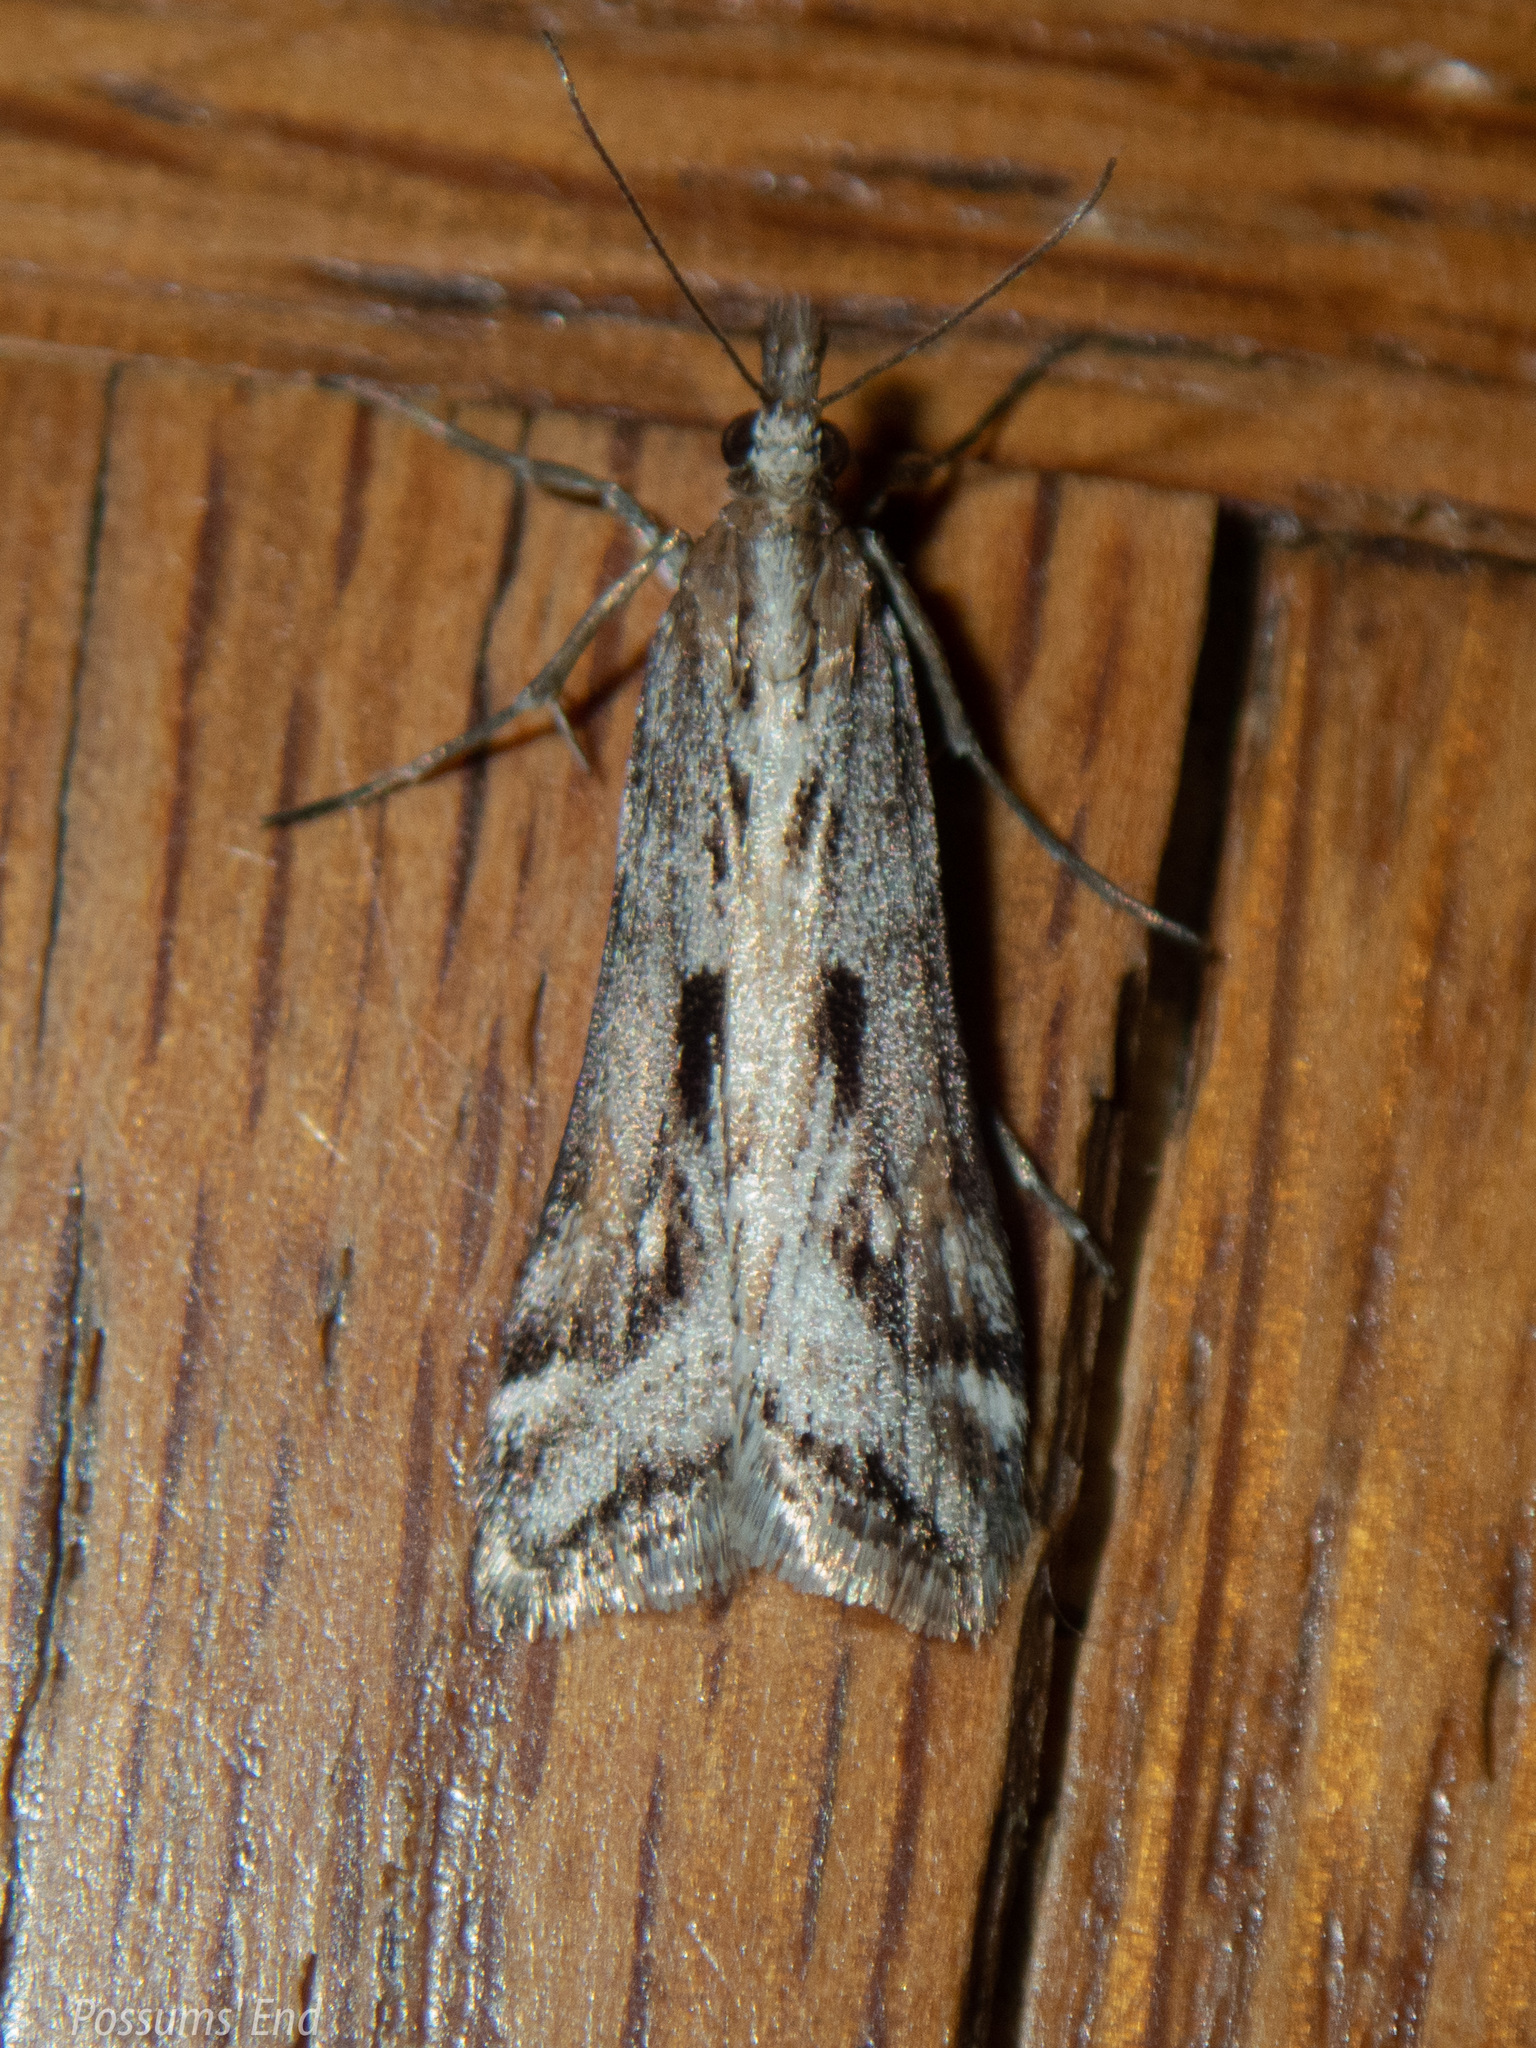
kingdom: Animalia
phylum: Arthropoda
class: Insecta
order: Lepidoptera
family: Crambidae
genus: Scoparia
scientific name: Scoparia exilis
